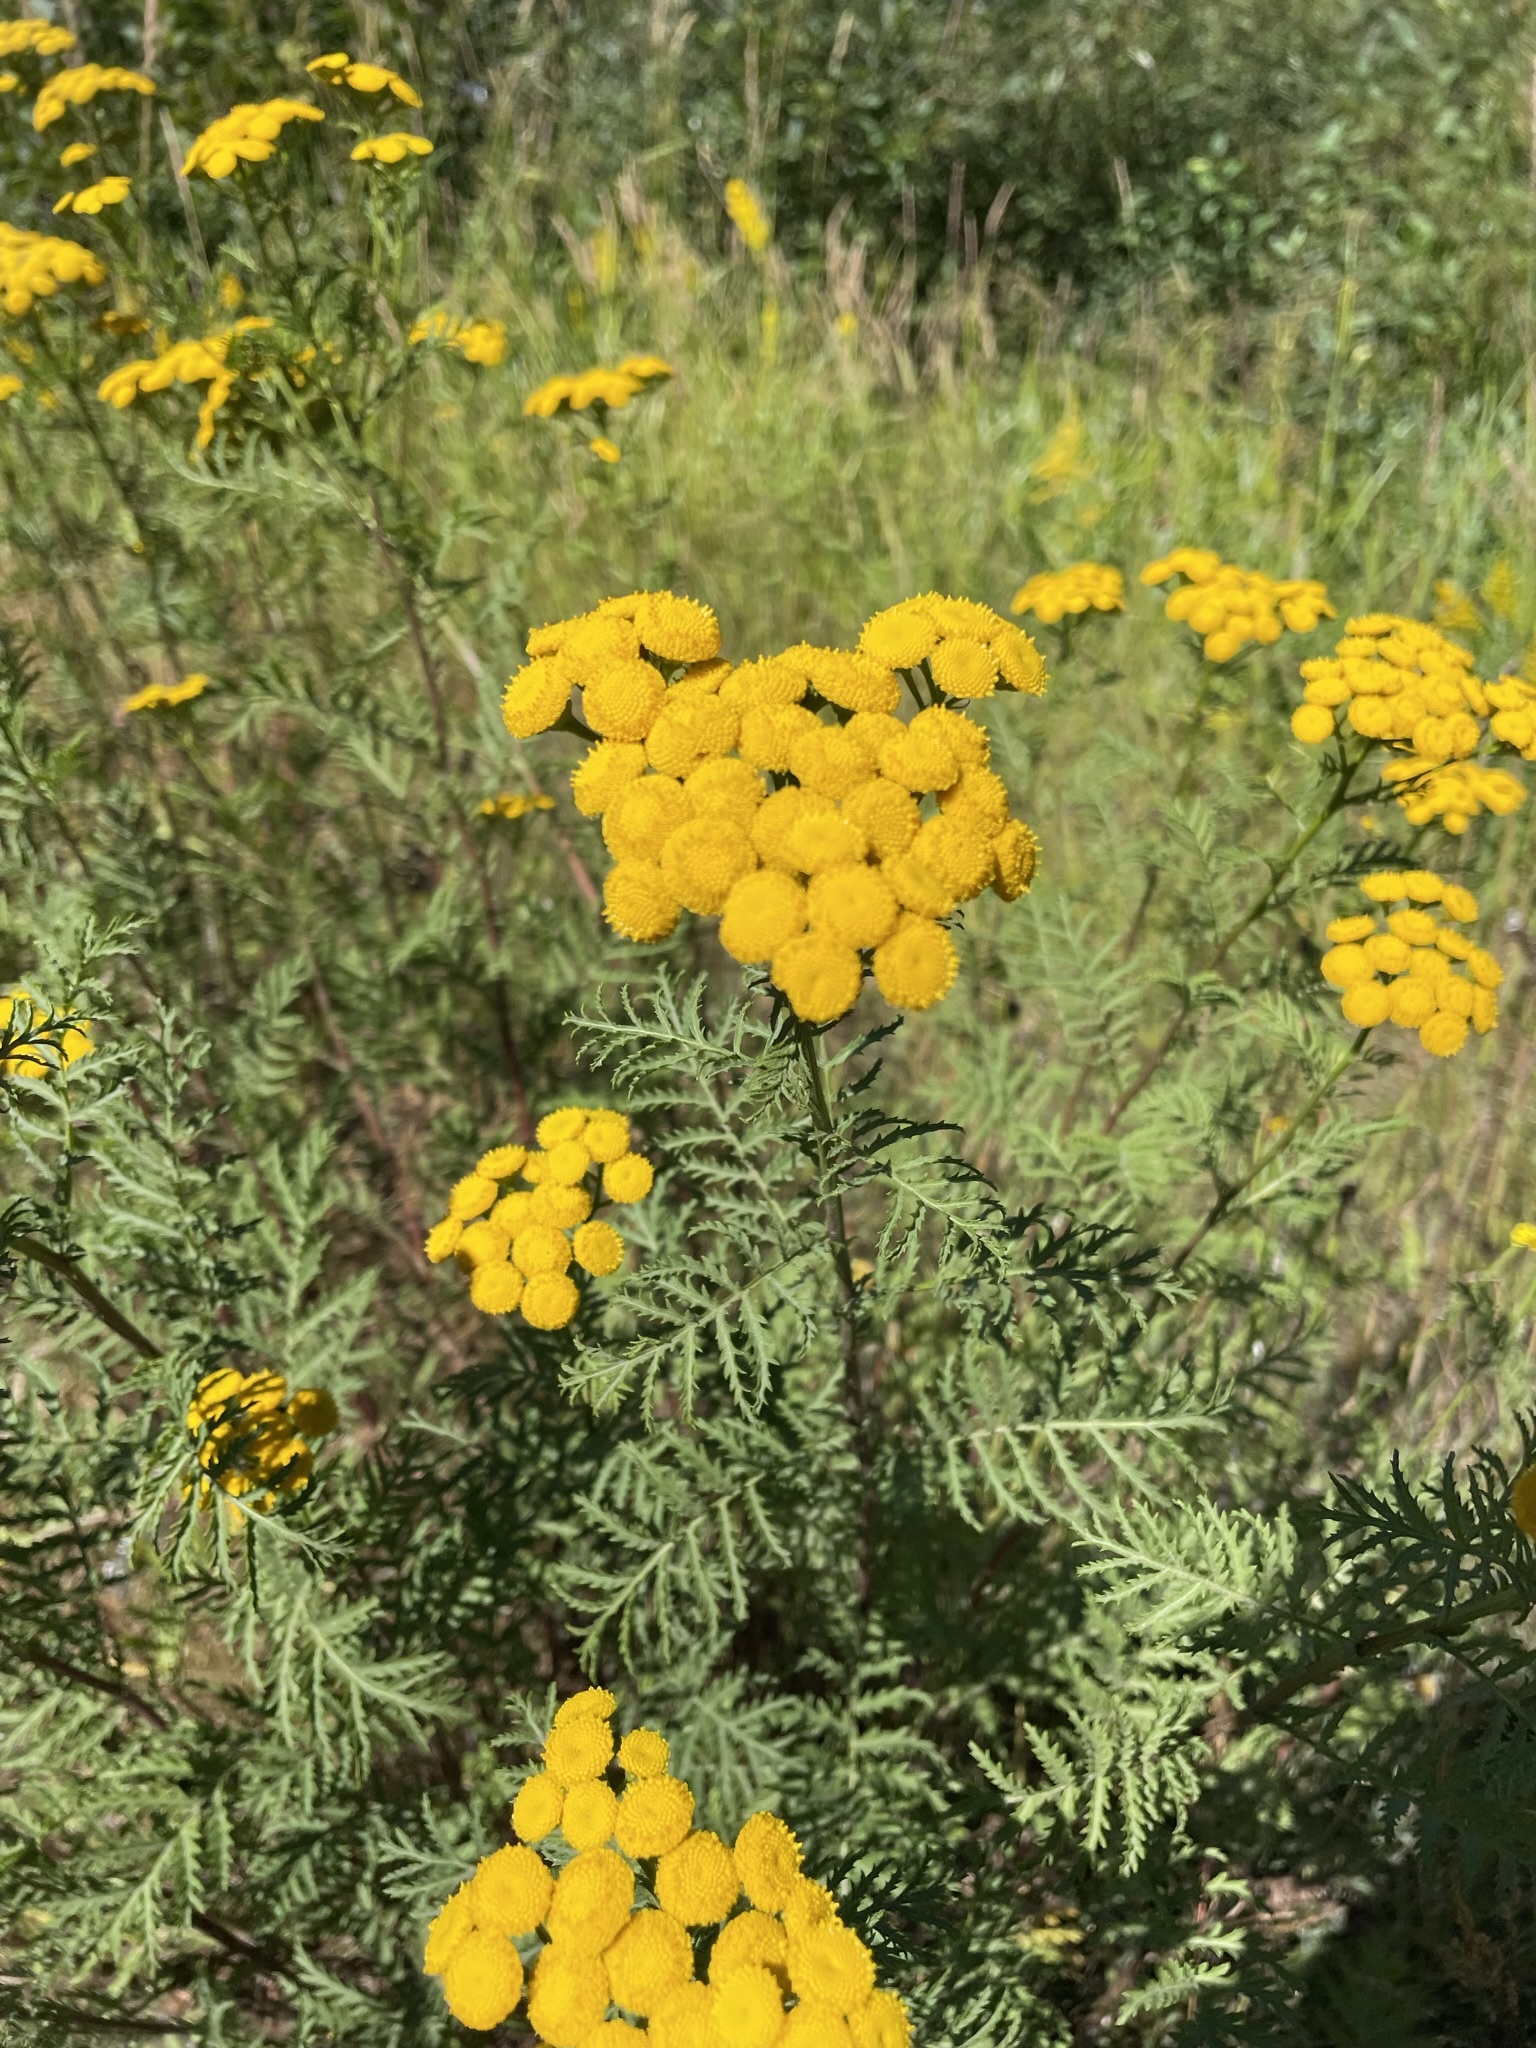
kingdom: Plantae
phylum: Tracheophyta
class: Magnoliopsida
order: Asterales
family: Asteraceae
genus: Tanacetum
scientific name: Tanacetum vulgare
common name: Common tansy
